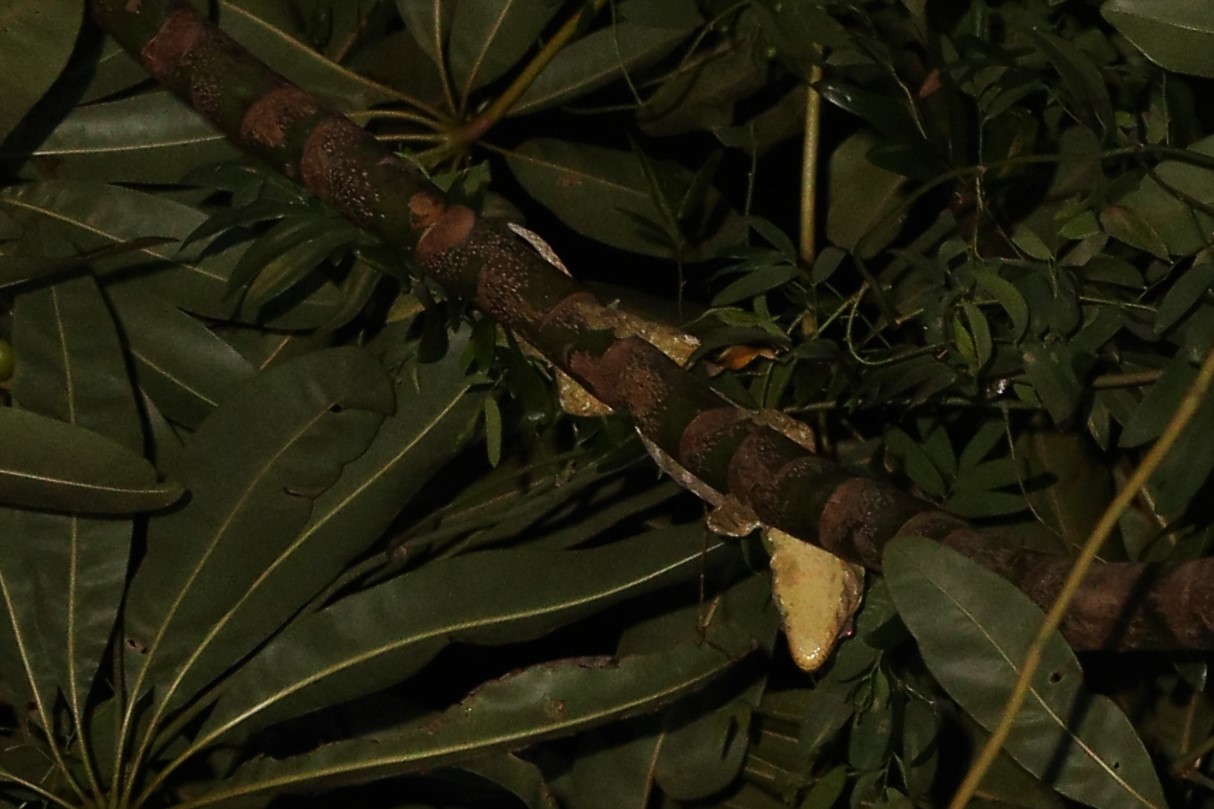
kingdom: Animalia
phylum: Chordata
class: Squamata
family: Diplodactylidae
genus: Rhacodactylus
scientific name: Rhacodactylus leachianus
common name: New caledonia giant gecko
